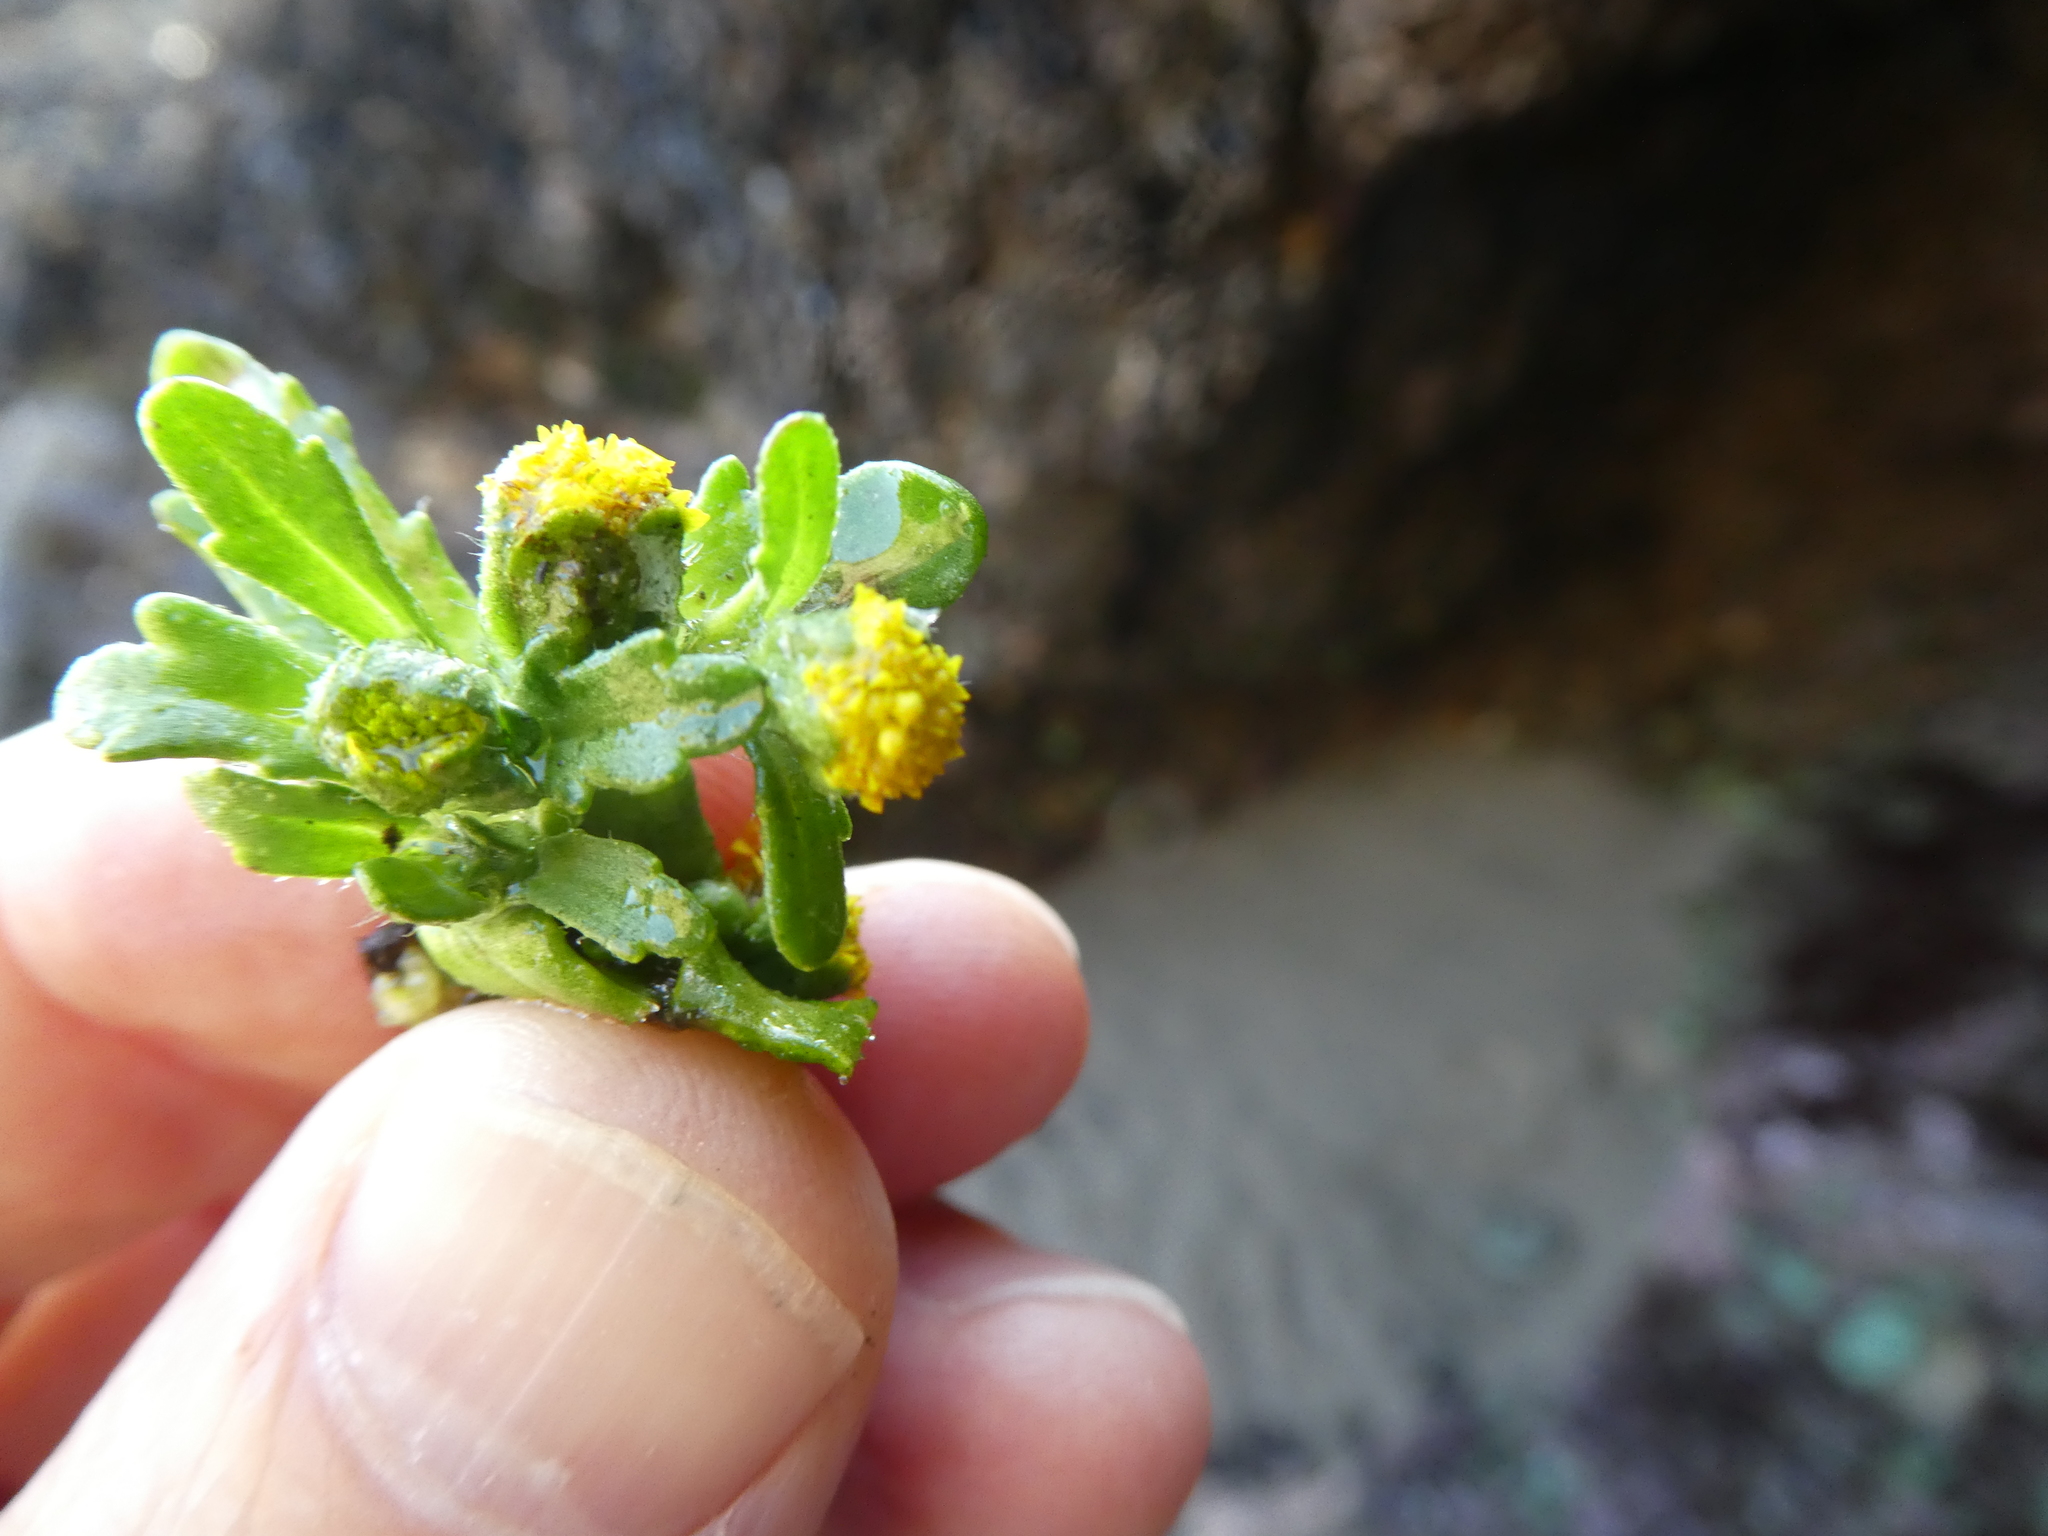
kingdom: Plantae
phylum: Tracheophyta
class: Magnoliopsida
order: Asterales
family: Asteraceae
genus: Lasthenia
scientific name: Lasthenia maritima
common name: Hairy goldfields
